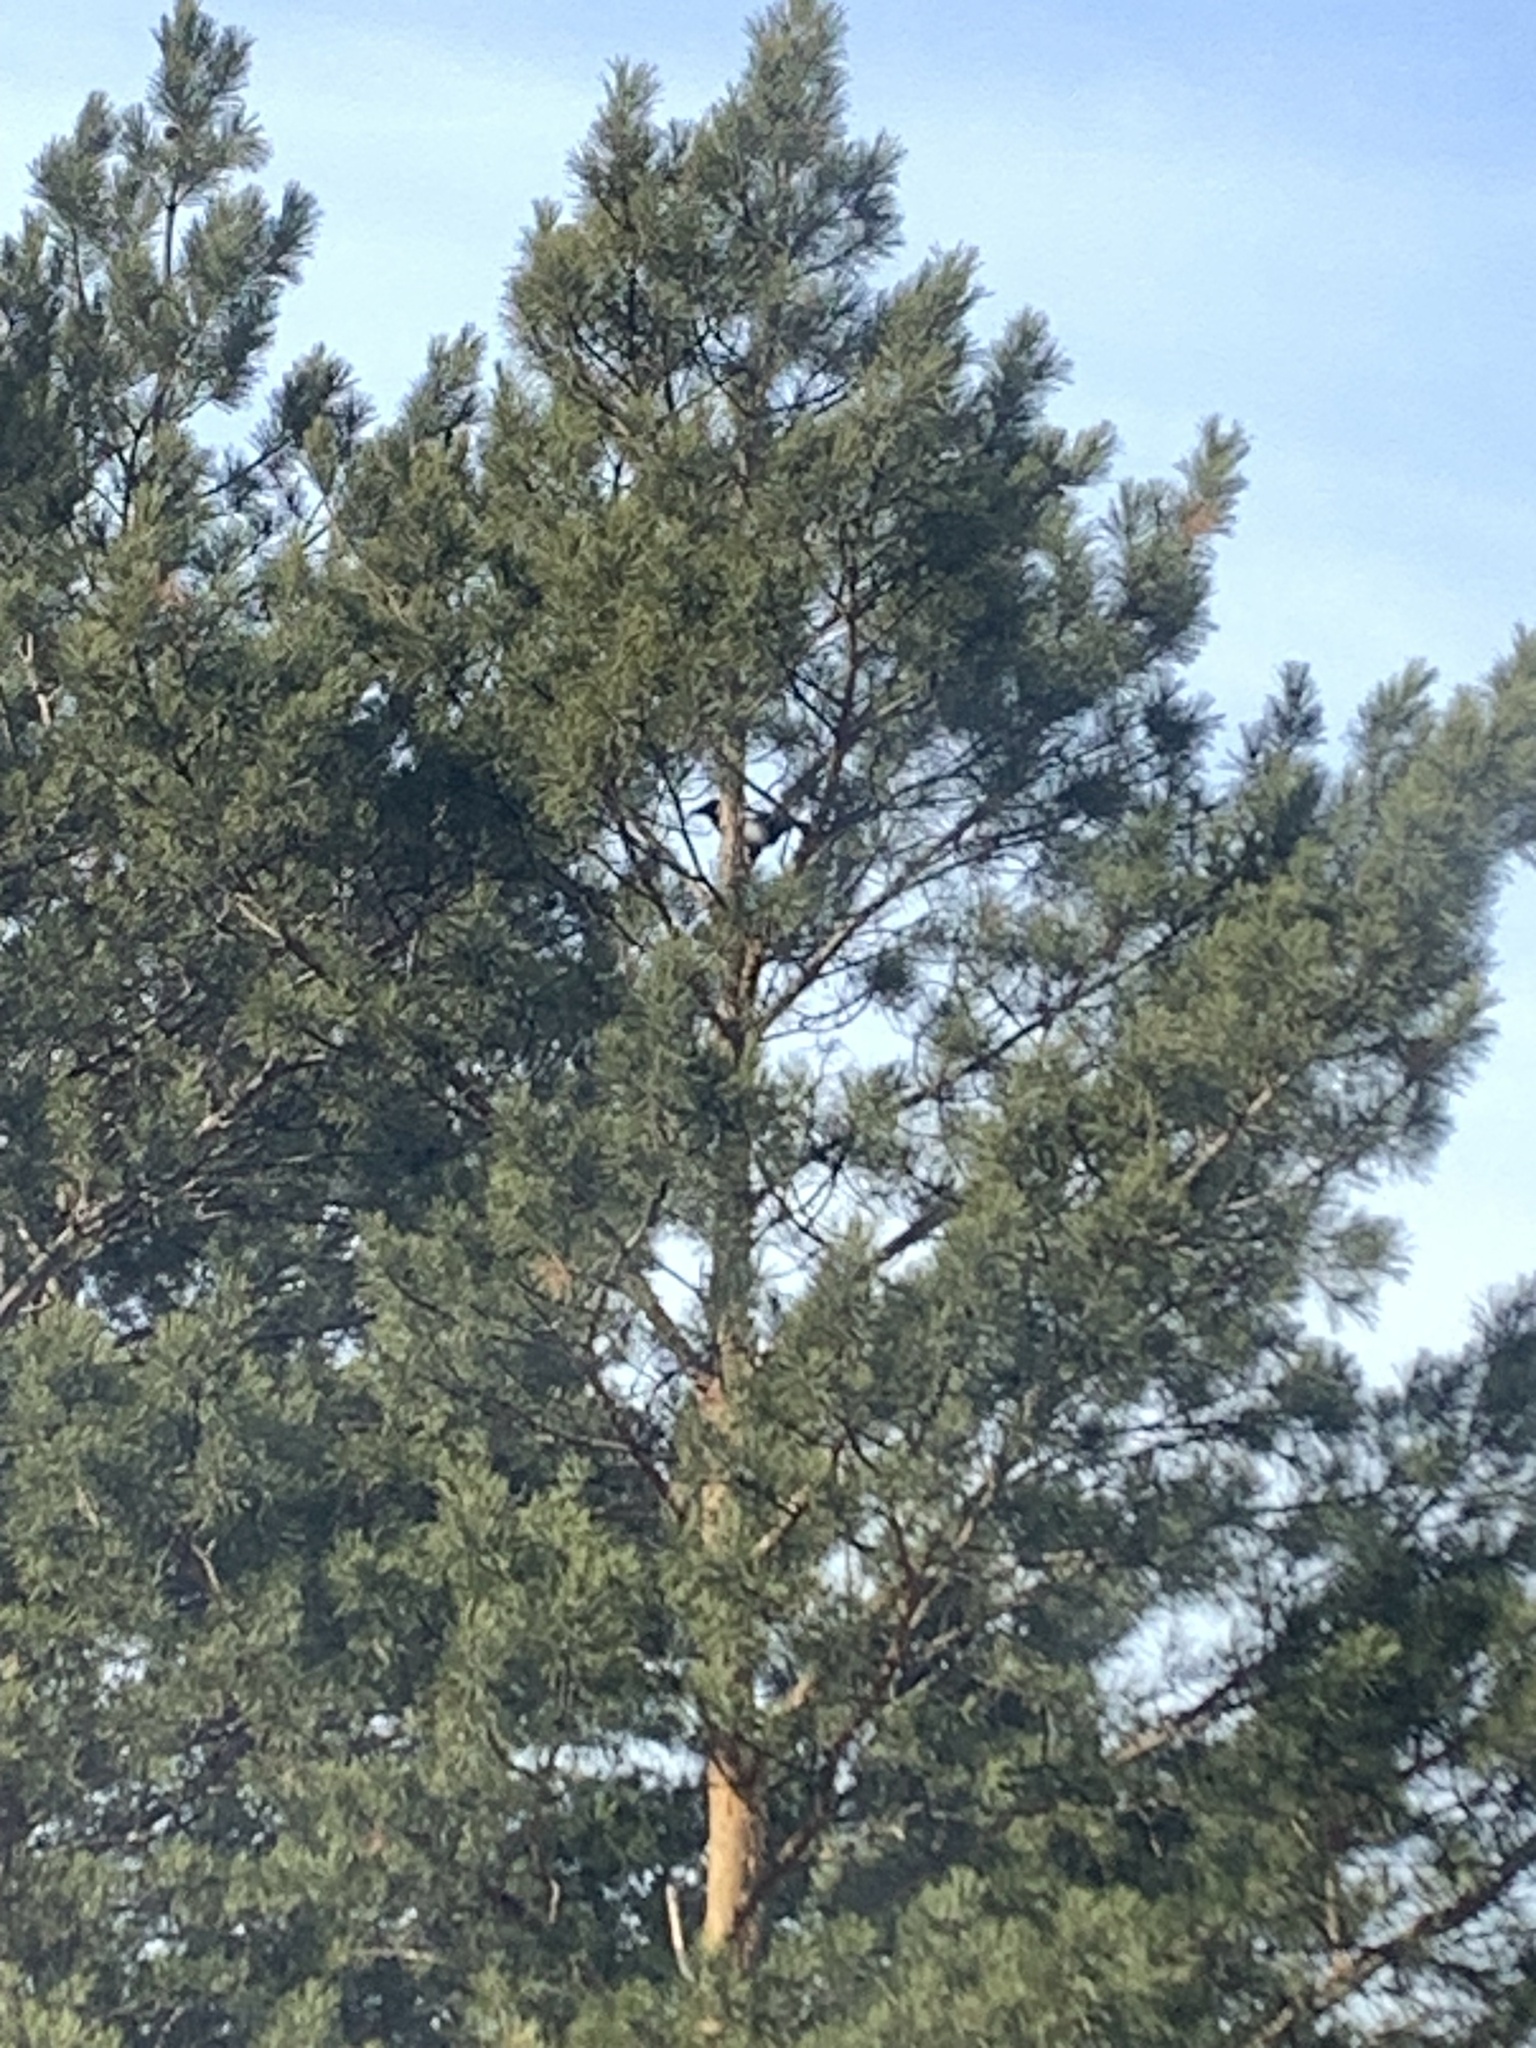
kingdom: Animalia
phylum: Chordata
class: Aves
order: Passeriformes
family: Corvidae
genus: Pica
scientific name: Pica pica
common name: Eurasian magpie
